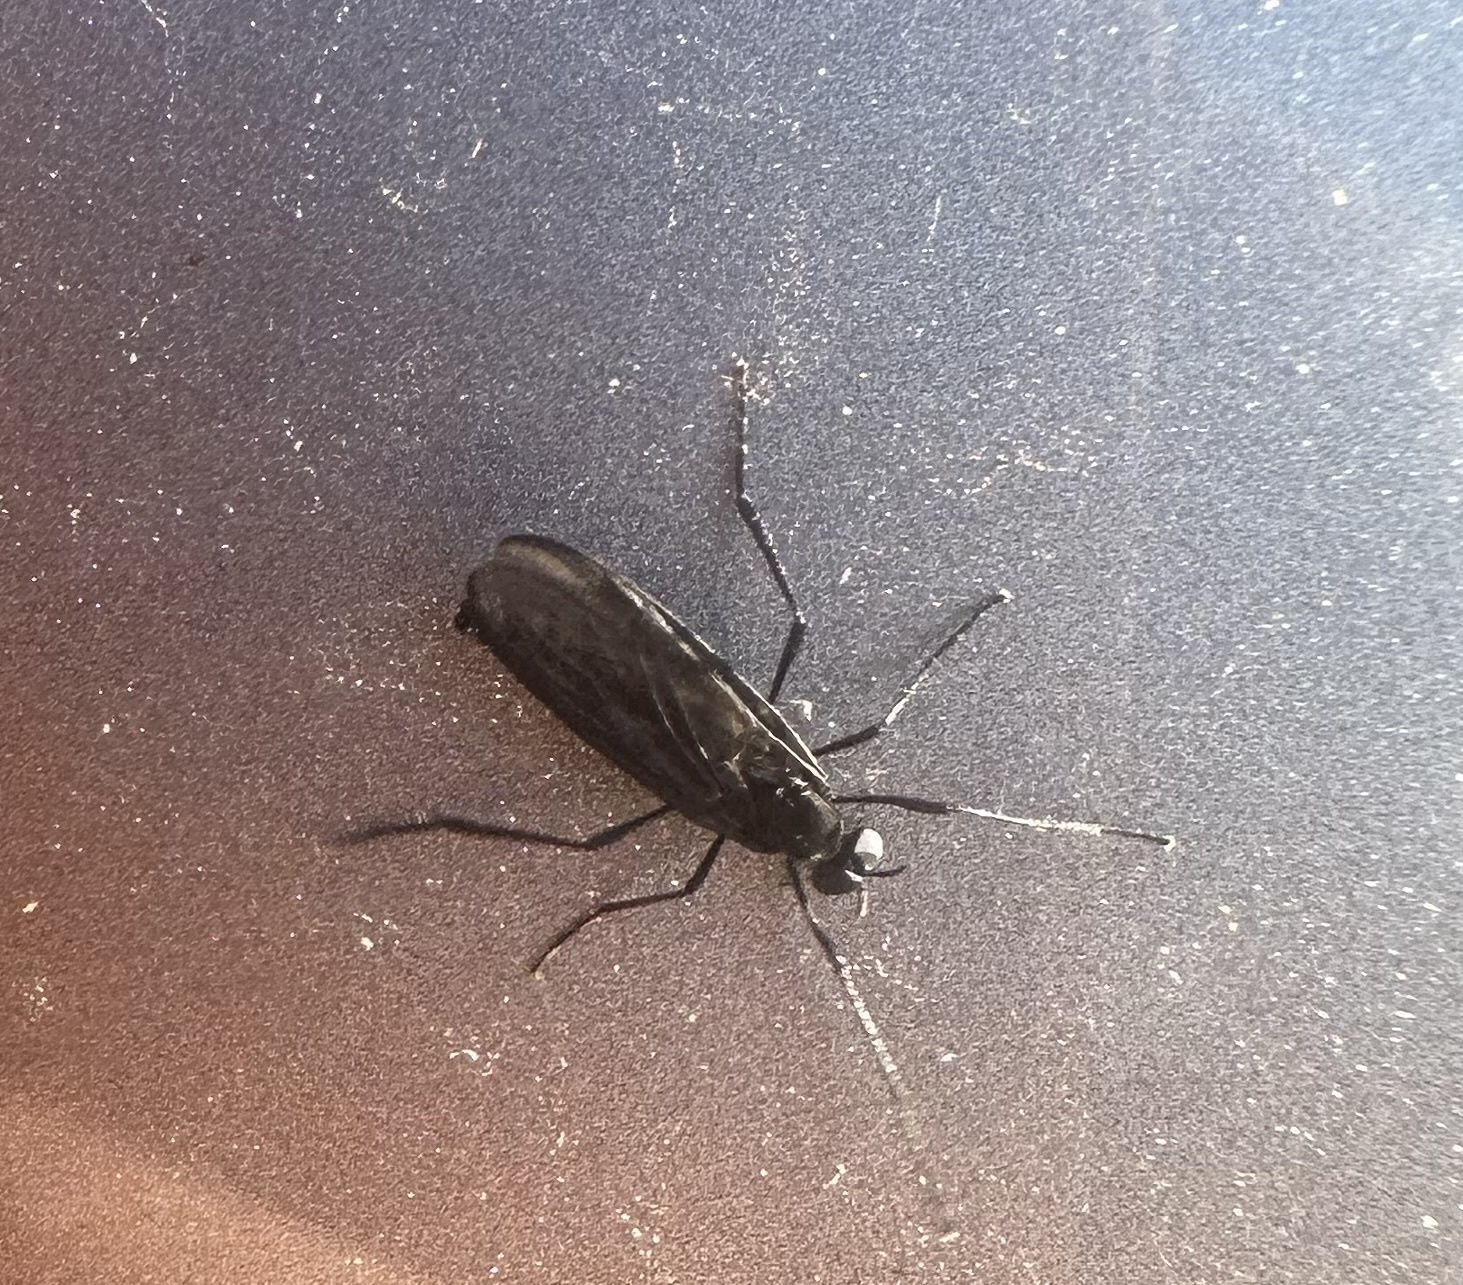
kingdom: Animalia
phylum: Arthropoda
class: Insecta
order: Diptera
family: Bibionidae
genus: Penthetria
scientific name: Penthetria heteroptera
